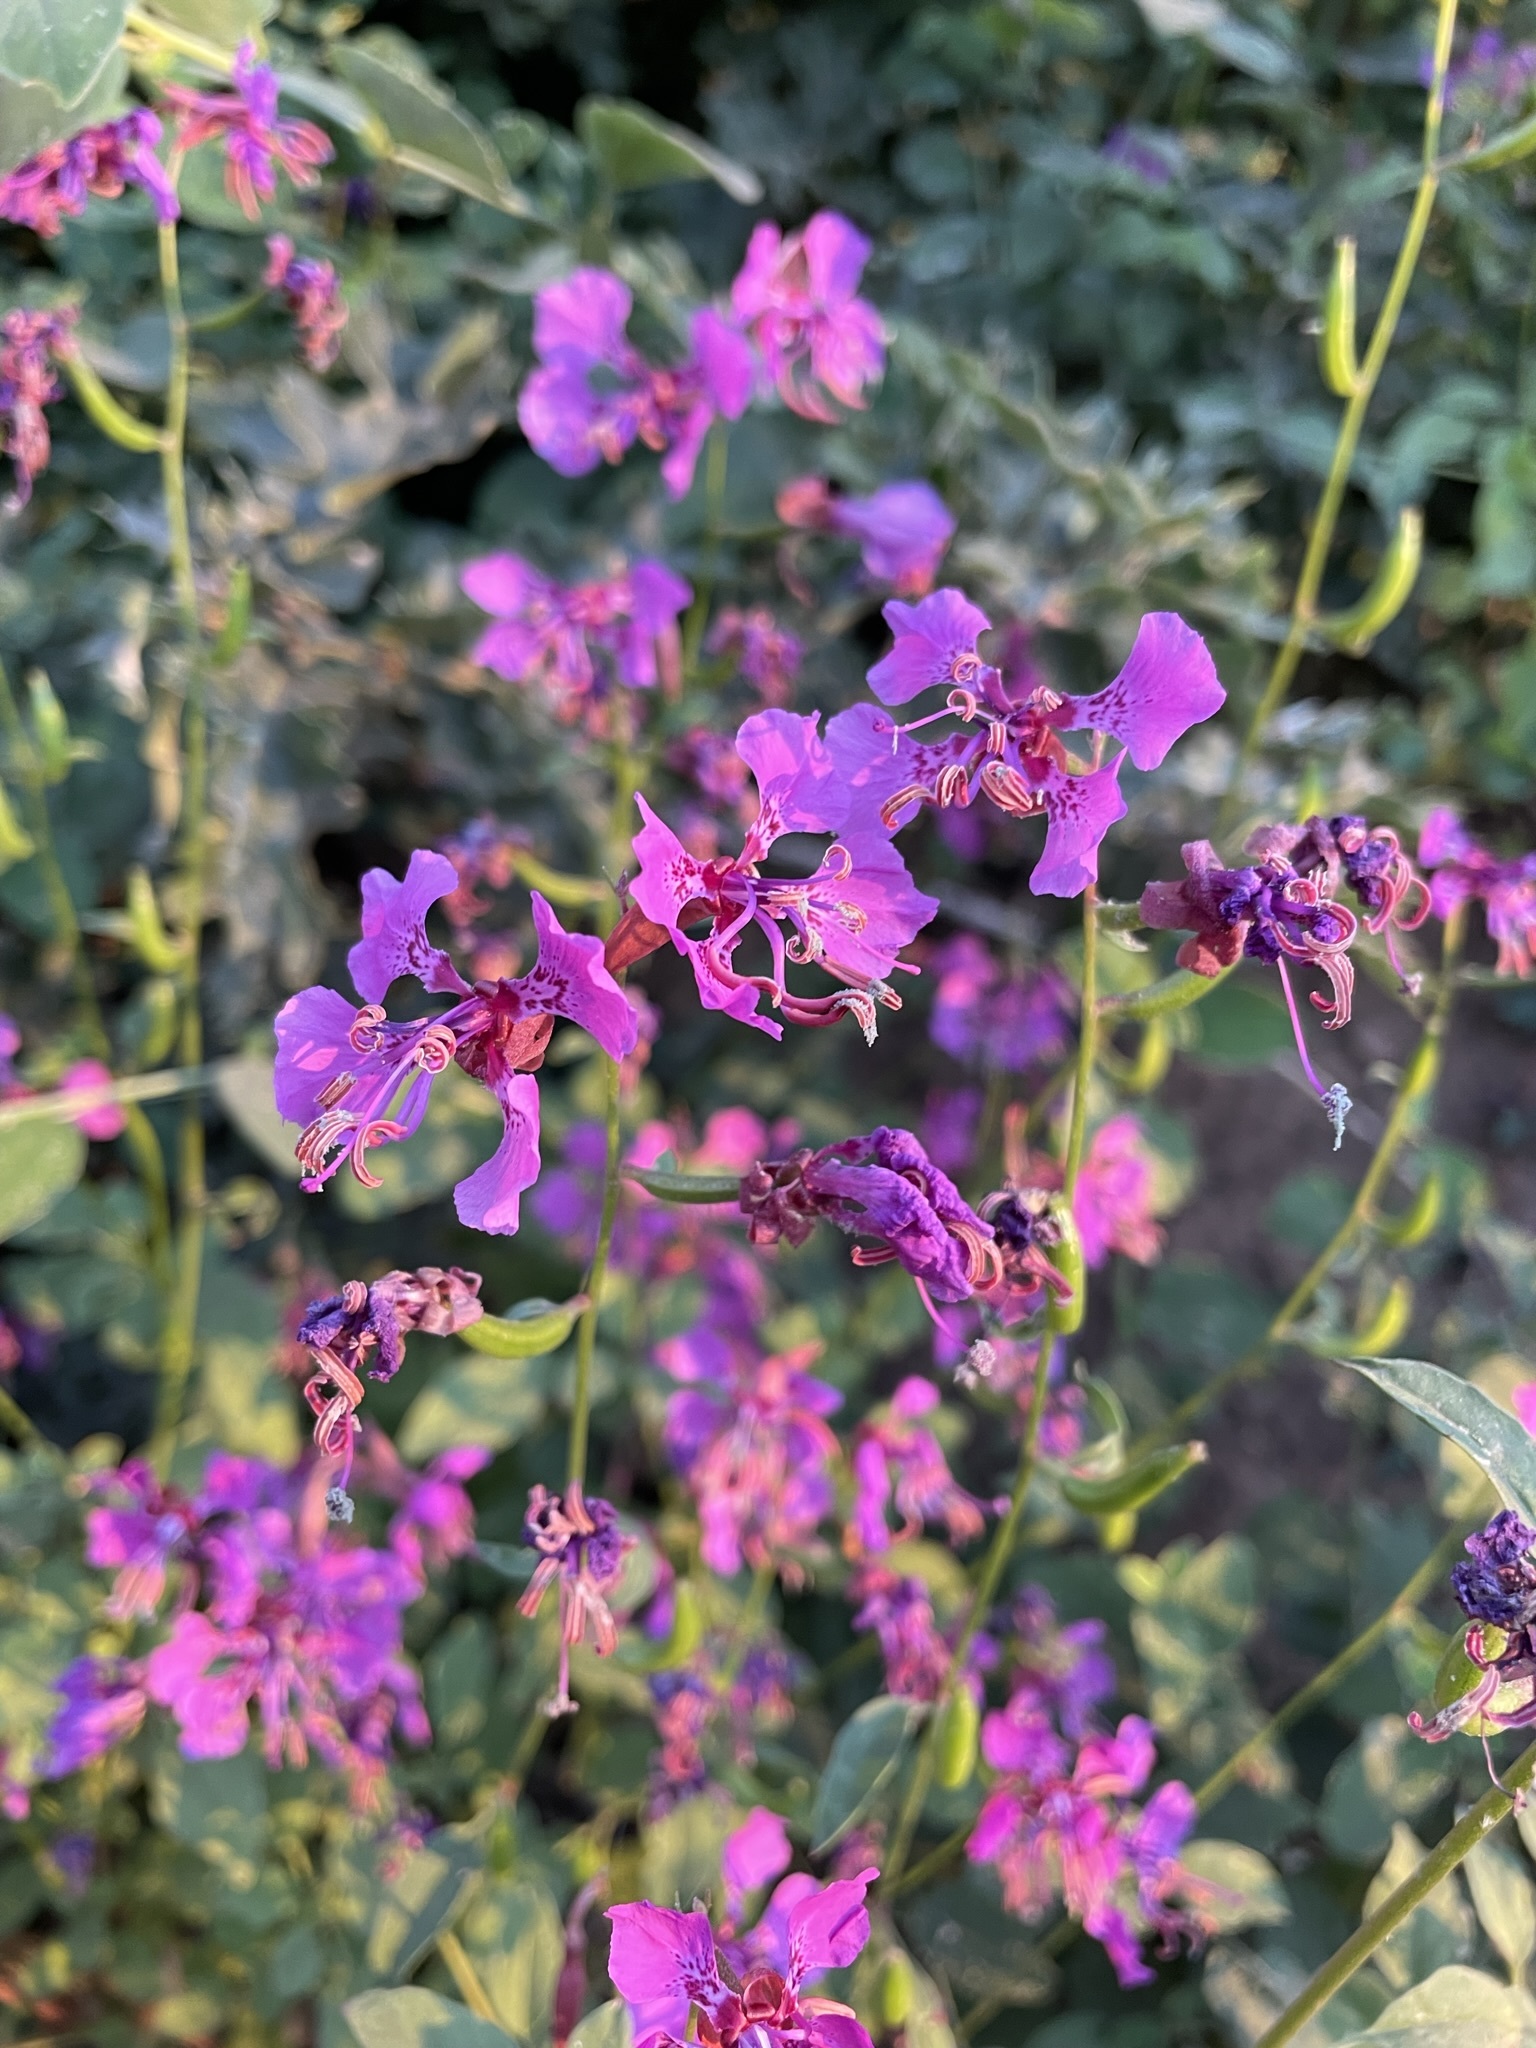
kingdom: Plantae
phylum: Tracheophyta
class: Magnoliopsida
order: Myrtales
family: Onagraceae
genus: Clarkia
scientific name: Clarkia mildrediae
